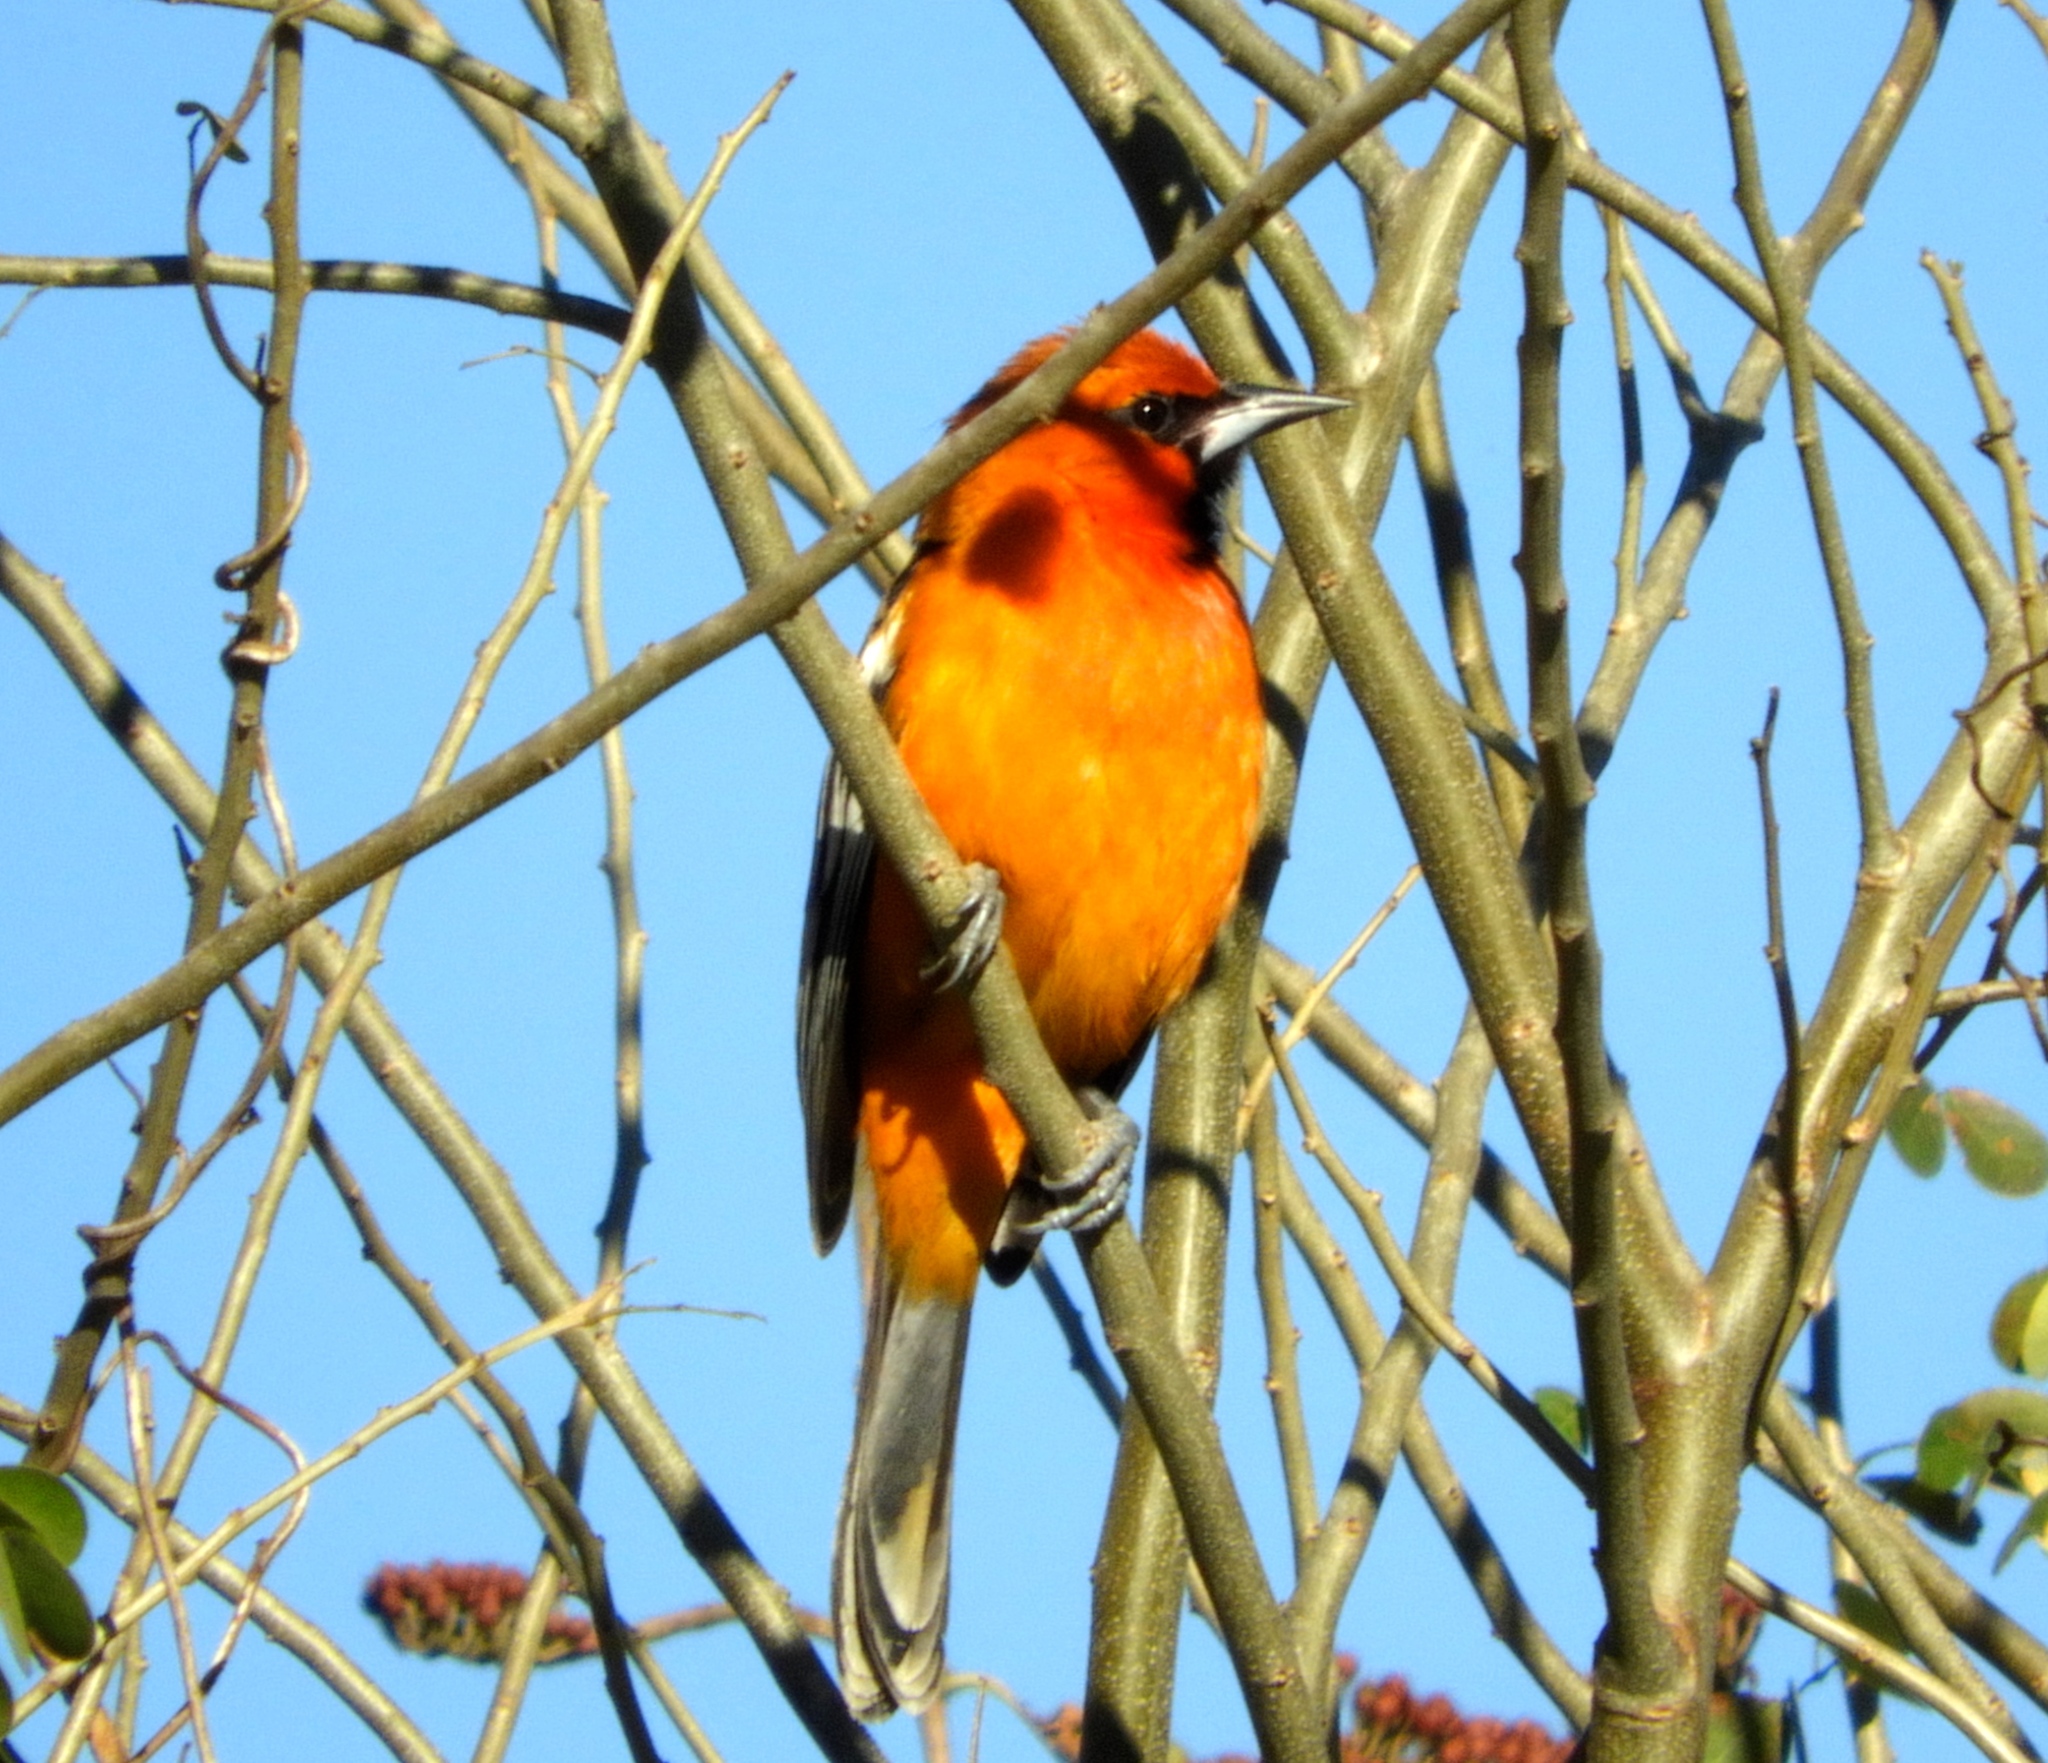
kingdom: Animalia
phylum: Chordata
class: Aves
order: Passeriformes
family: Icteridae
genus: Icterus
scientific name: Icterus pustulatus
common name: Streak-backed oriole
